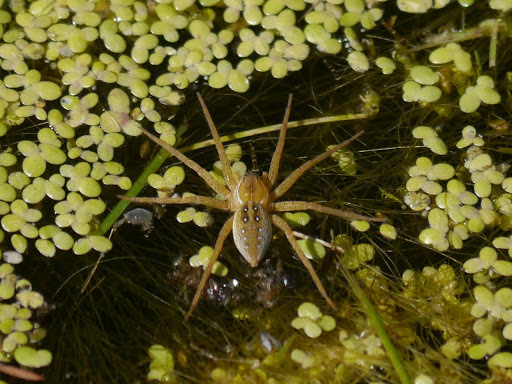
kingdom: Animalia
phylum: Arthropoda
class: Arachnida
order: Araneae
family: Pisauridae
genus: Dolomedes
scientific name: Dolomedes triton
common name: Six-spotted fishing spider
